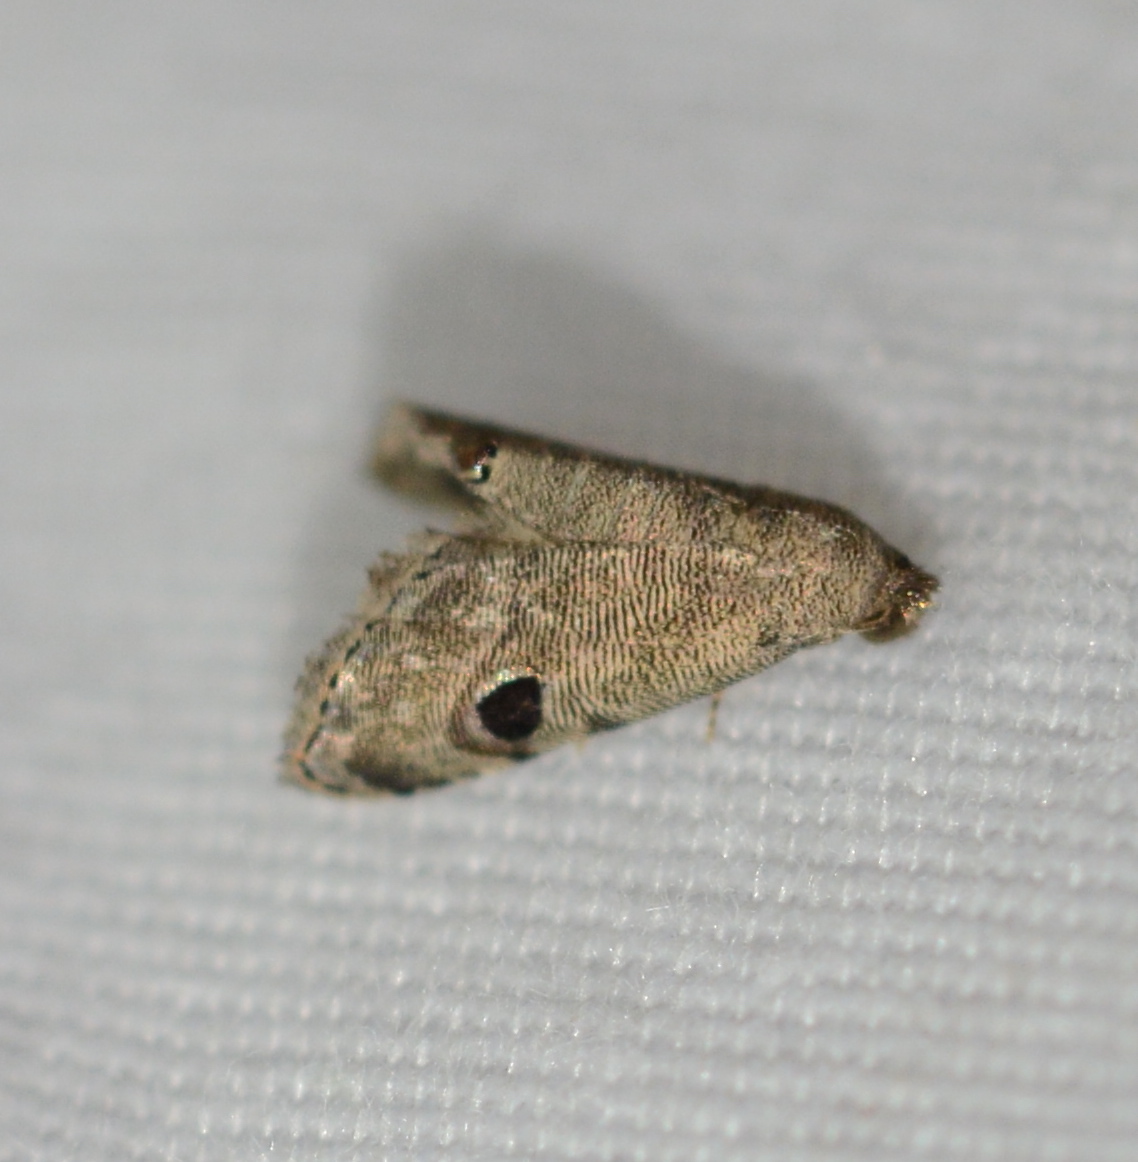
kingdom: Animalia
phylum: Arthropoda
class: Insecta
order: Lepidoptera
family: Noctuidae
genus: Abablemma
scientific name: Abablemma brimleyana
